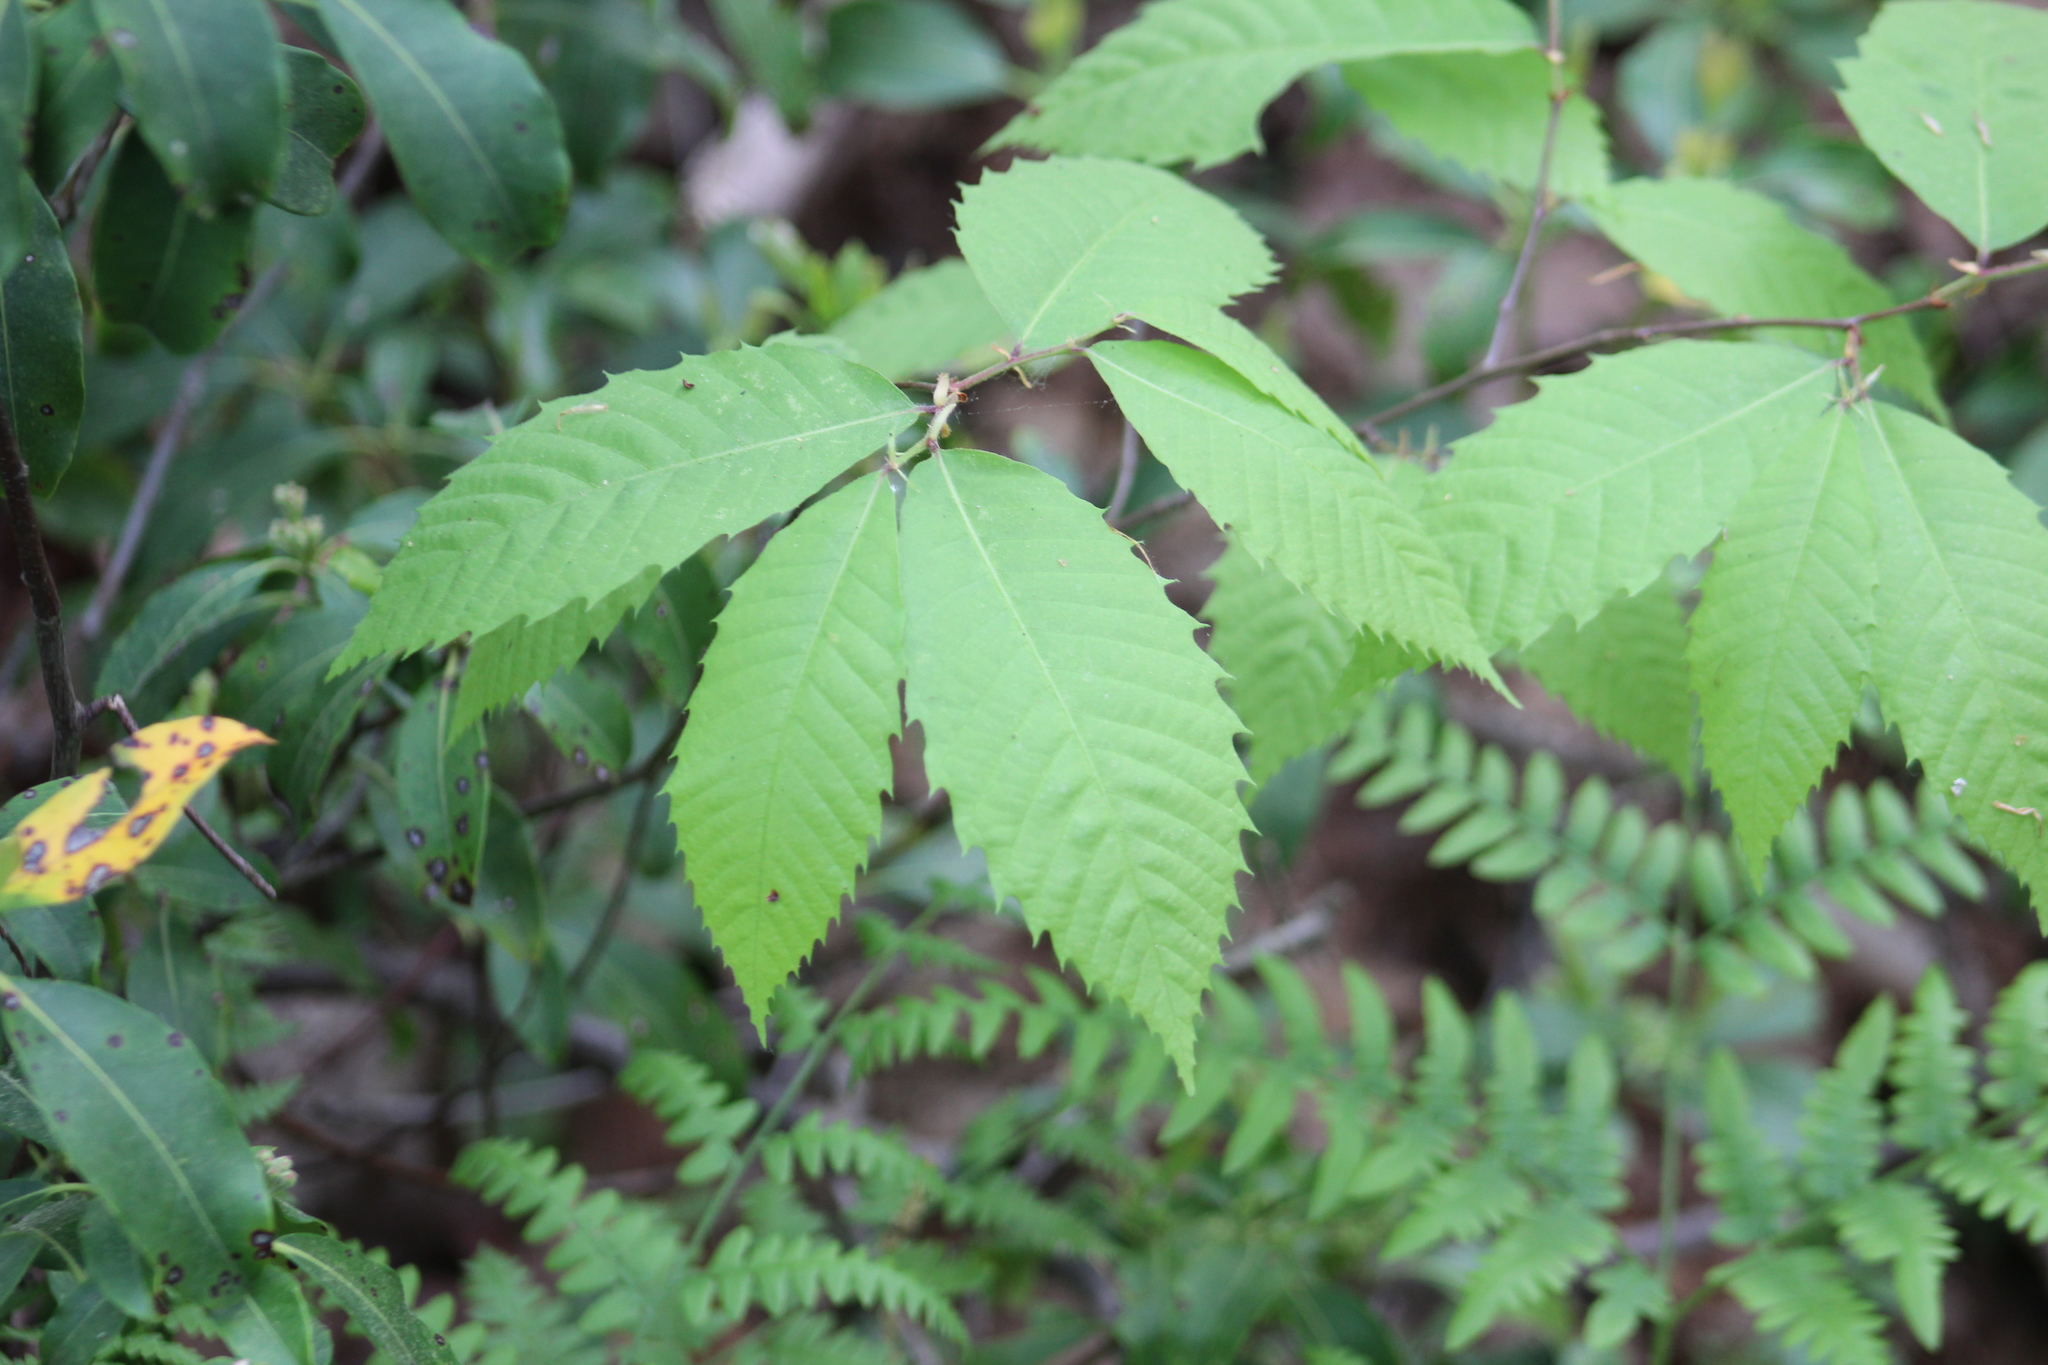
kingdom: Plantae
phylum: Tracheophyta
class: Magnoliopsida
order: Fagales
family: Fagaceae
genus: Castanea
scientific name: Castanea dentata
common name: American chestnut
